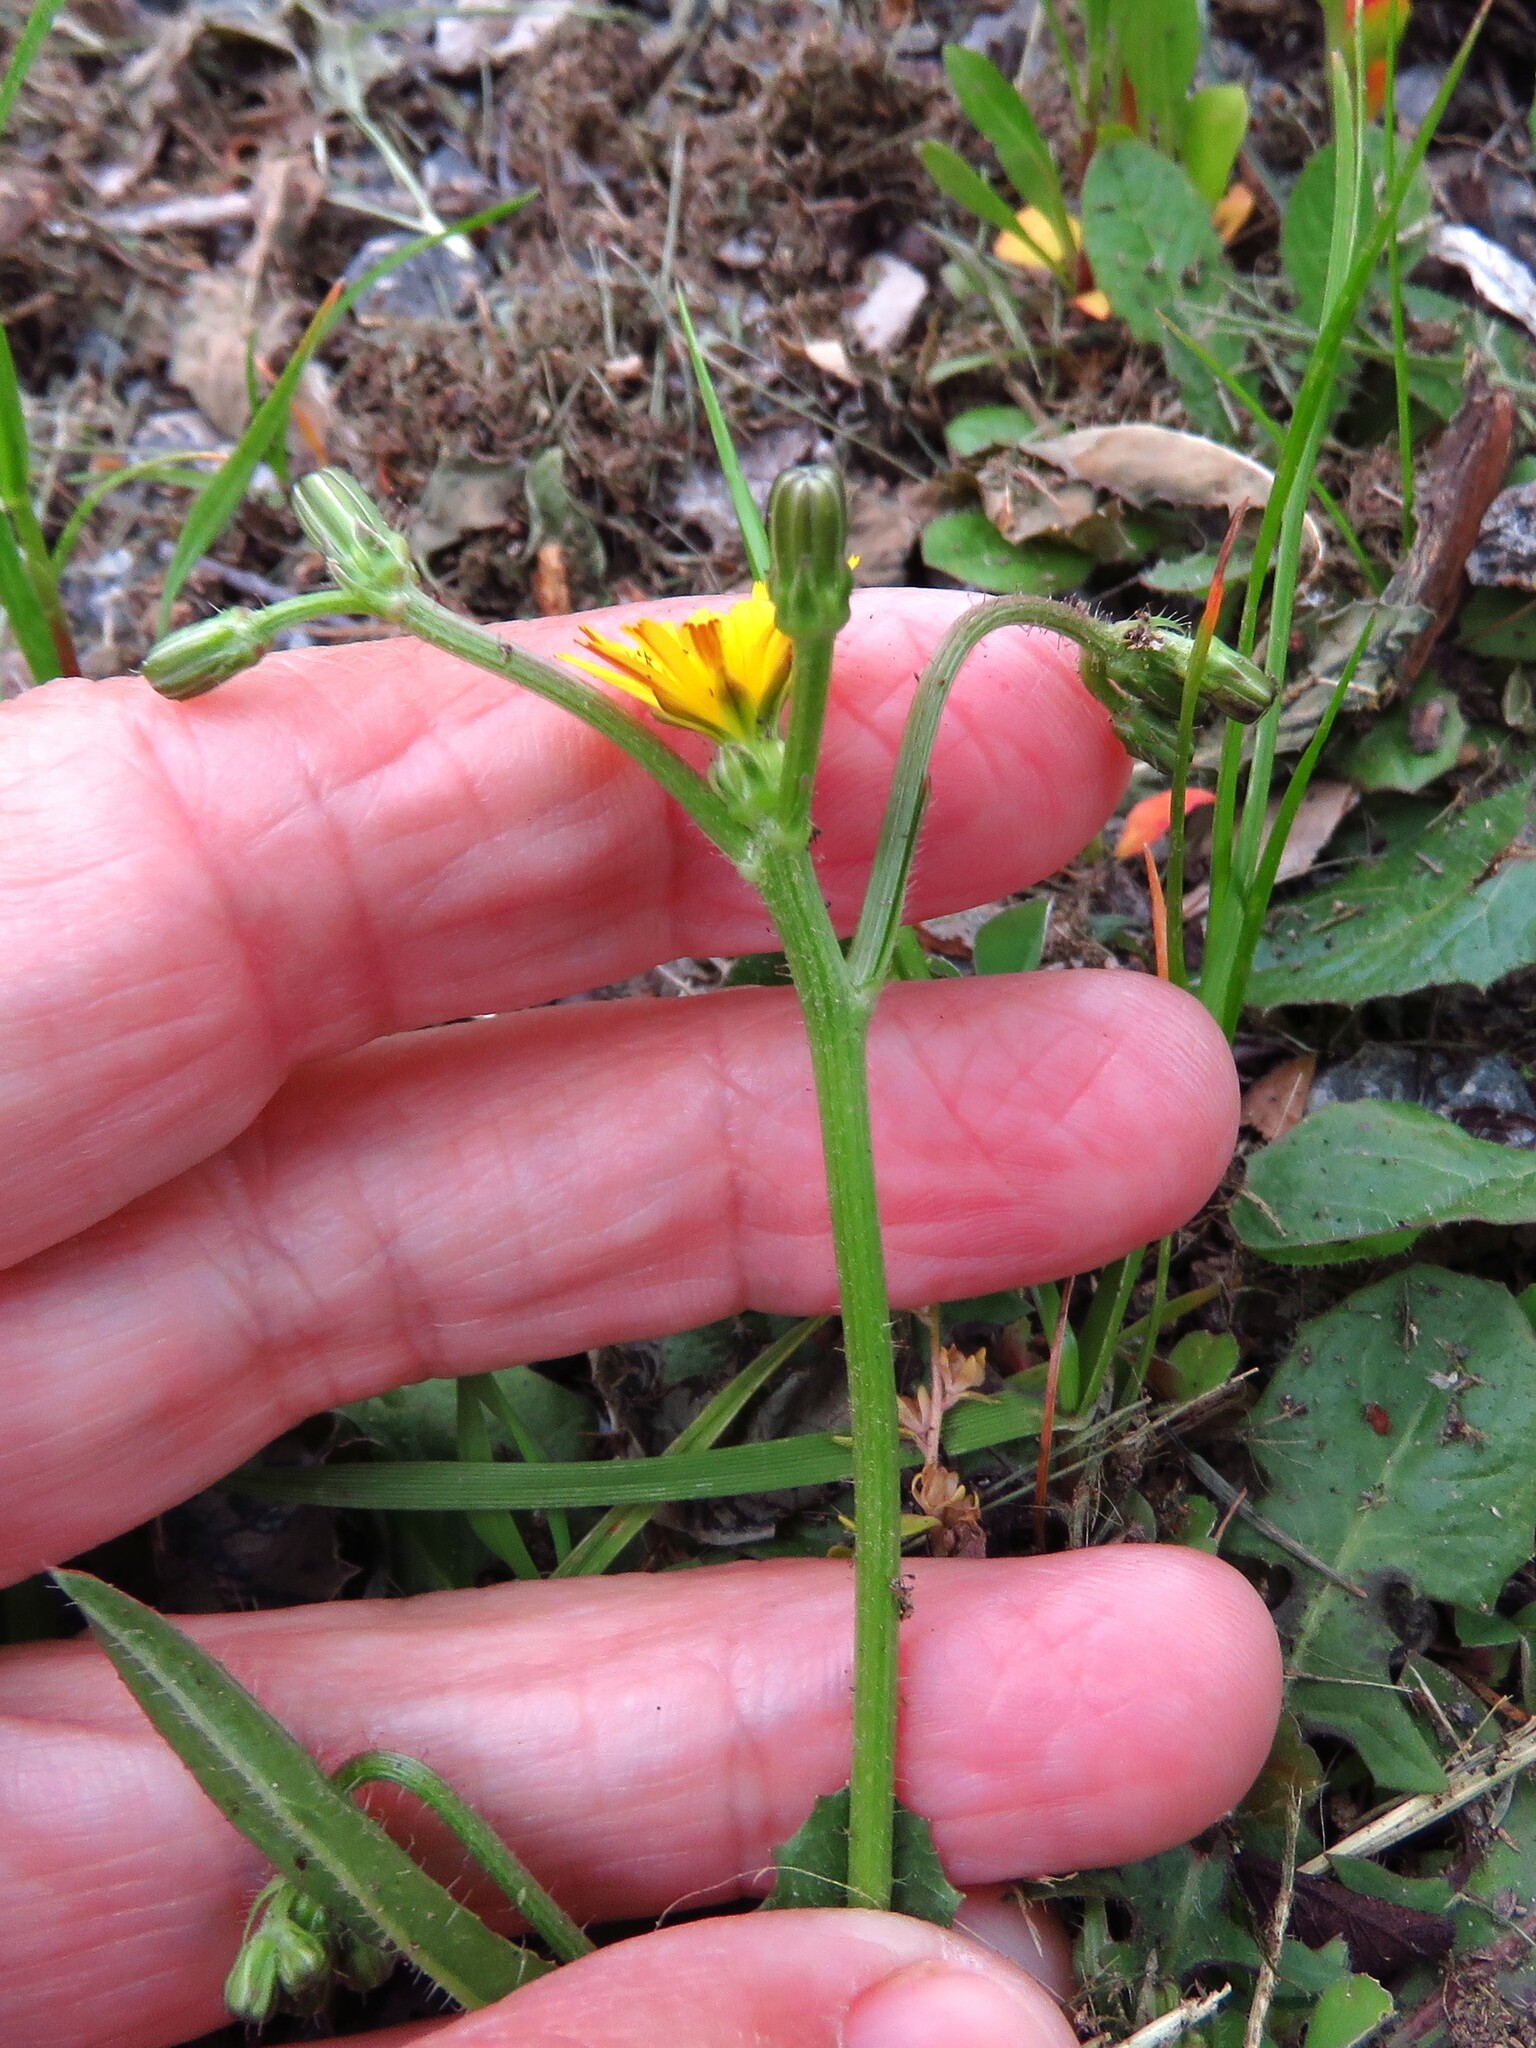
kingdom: Plantae
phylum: Tracheophyta
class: Magnoliopsida
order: Asterales
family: Asteraceae
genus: Crepis
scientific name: Crepis zacintha
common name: Striped hawksbeard
